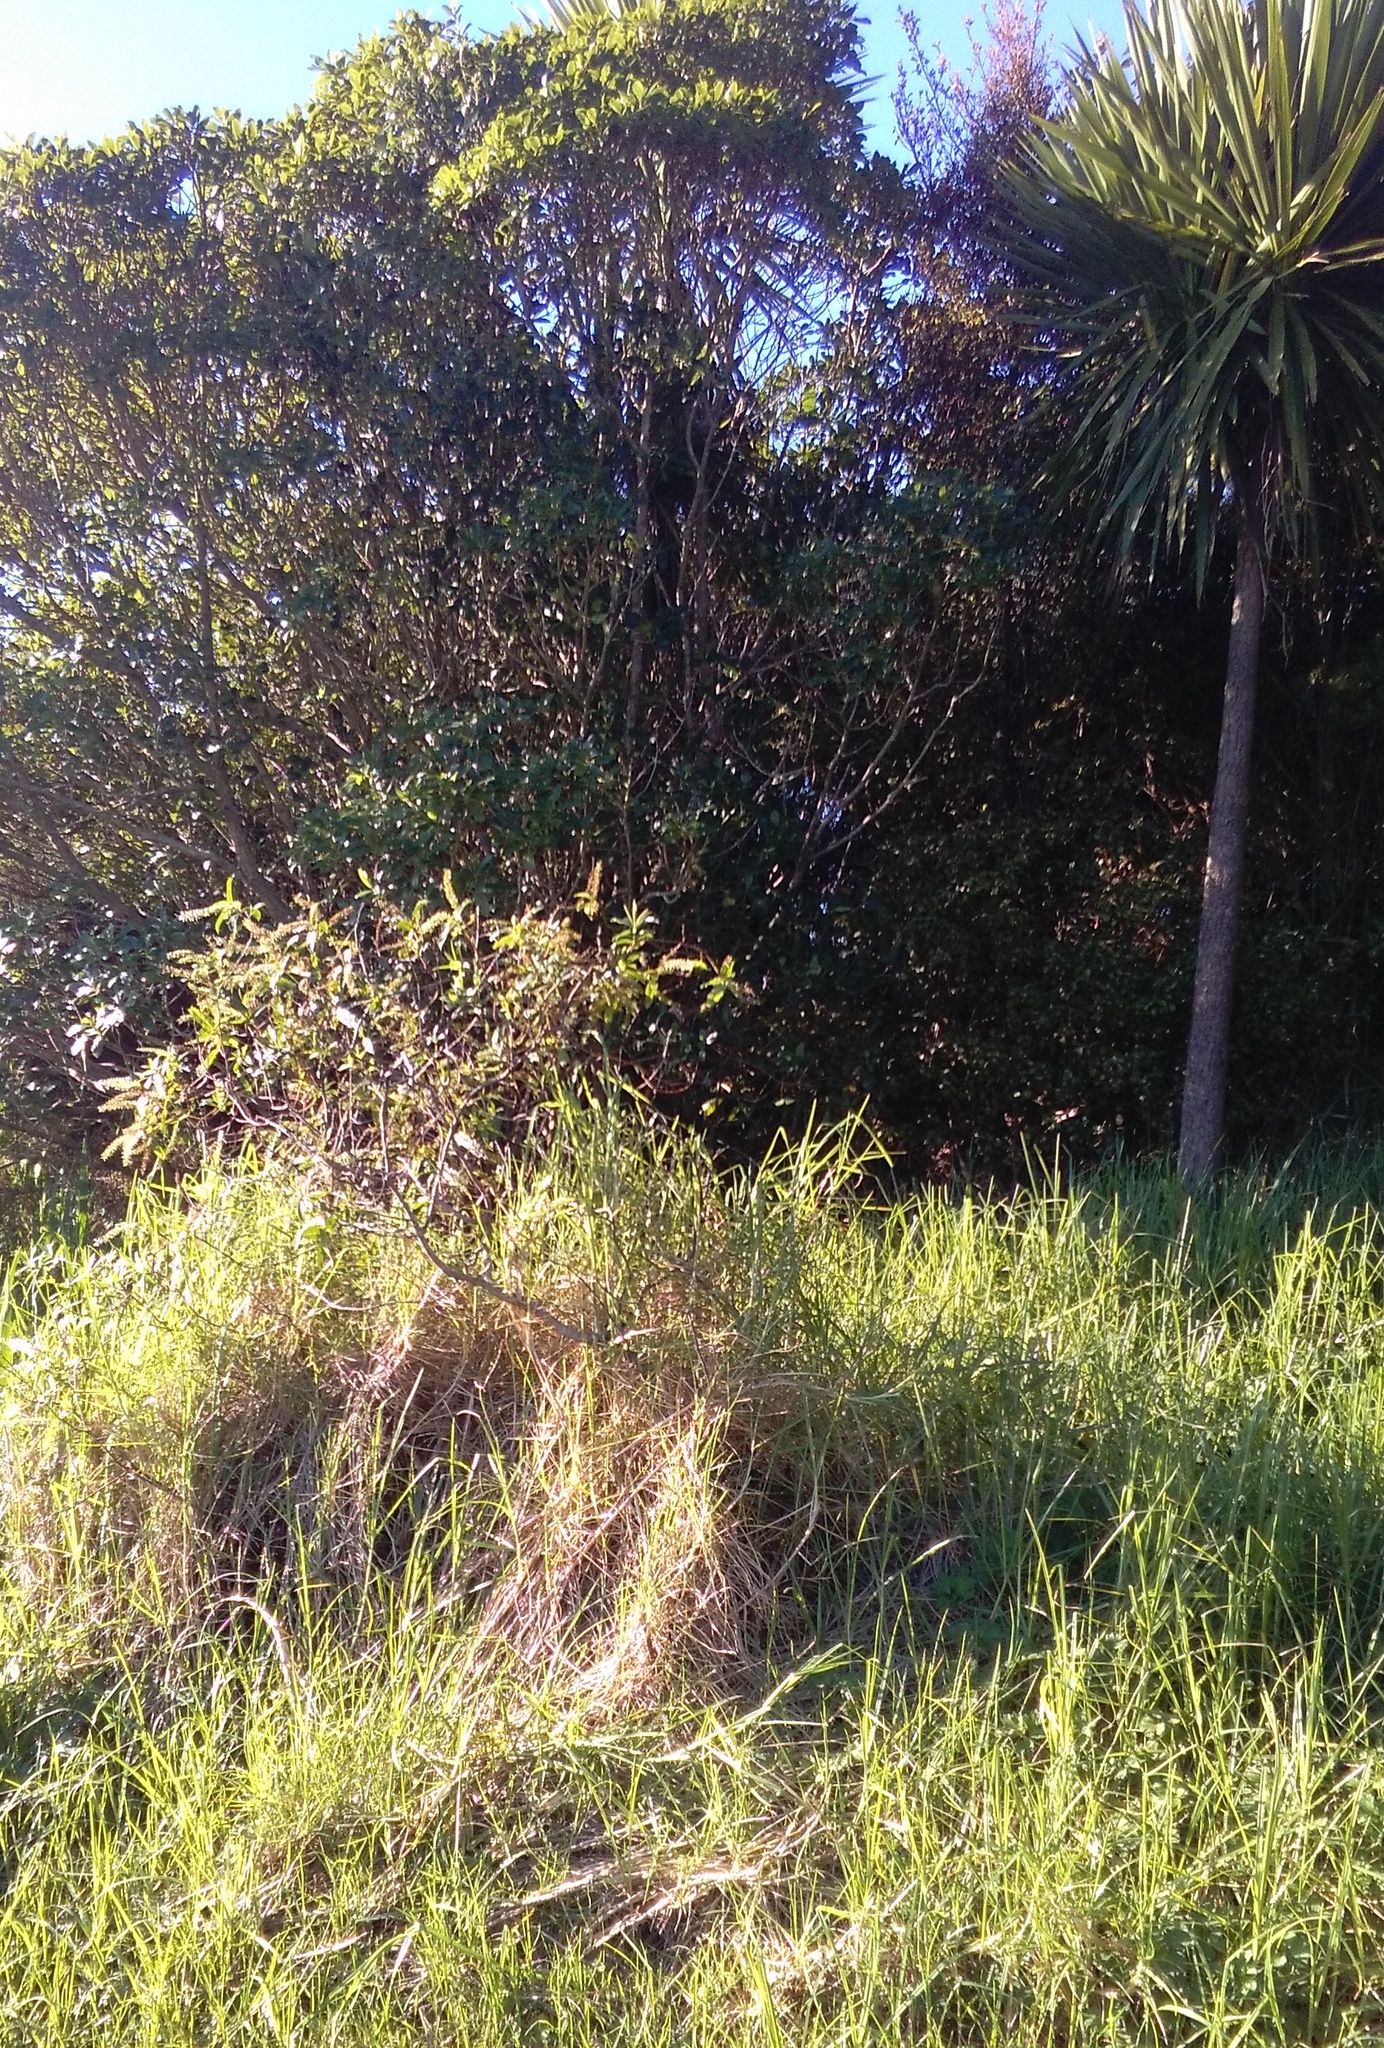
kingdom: Plantae
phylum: Tracheophyta
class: Liliopsida
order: Poales
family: Poaceae
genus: Cenchrus
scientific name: Cenchrus clandestinus
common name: Kikuyugrass
